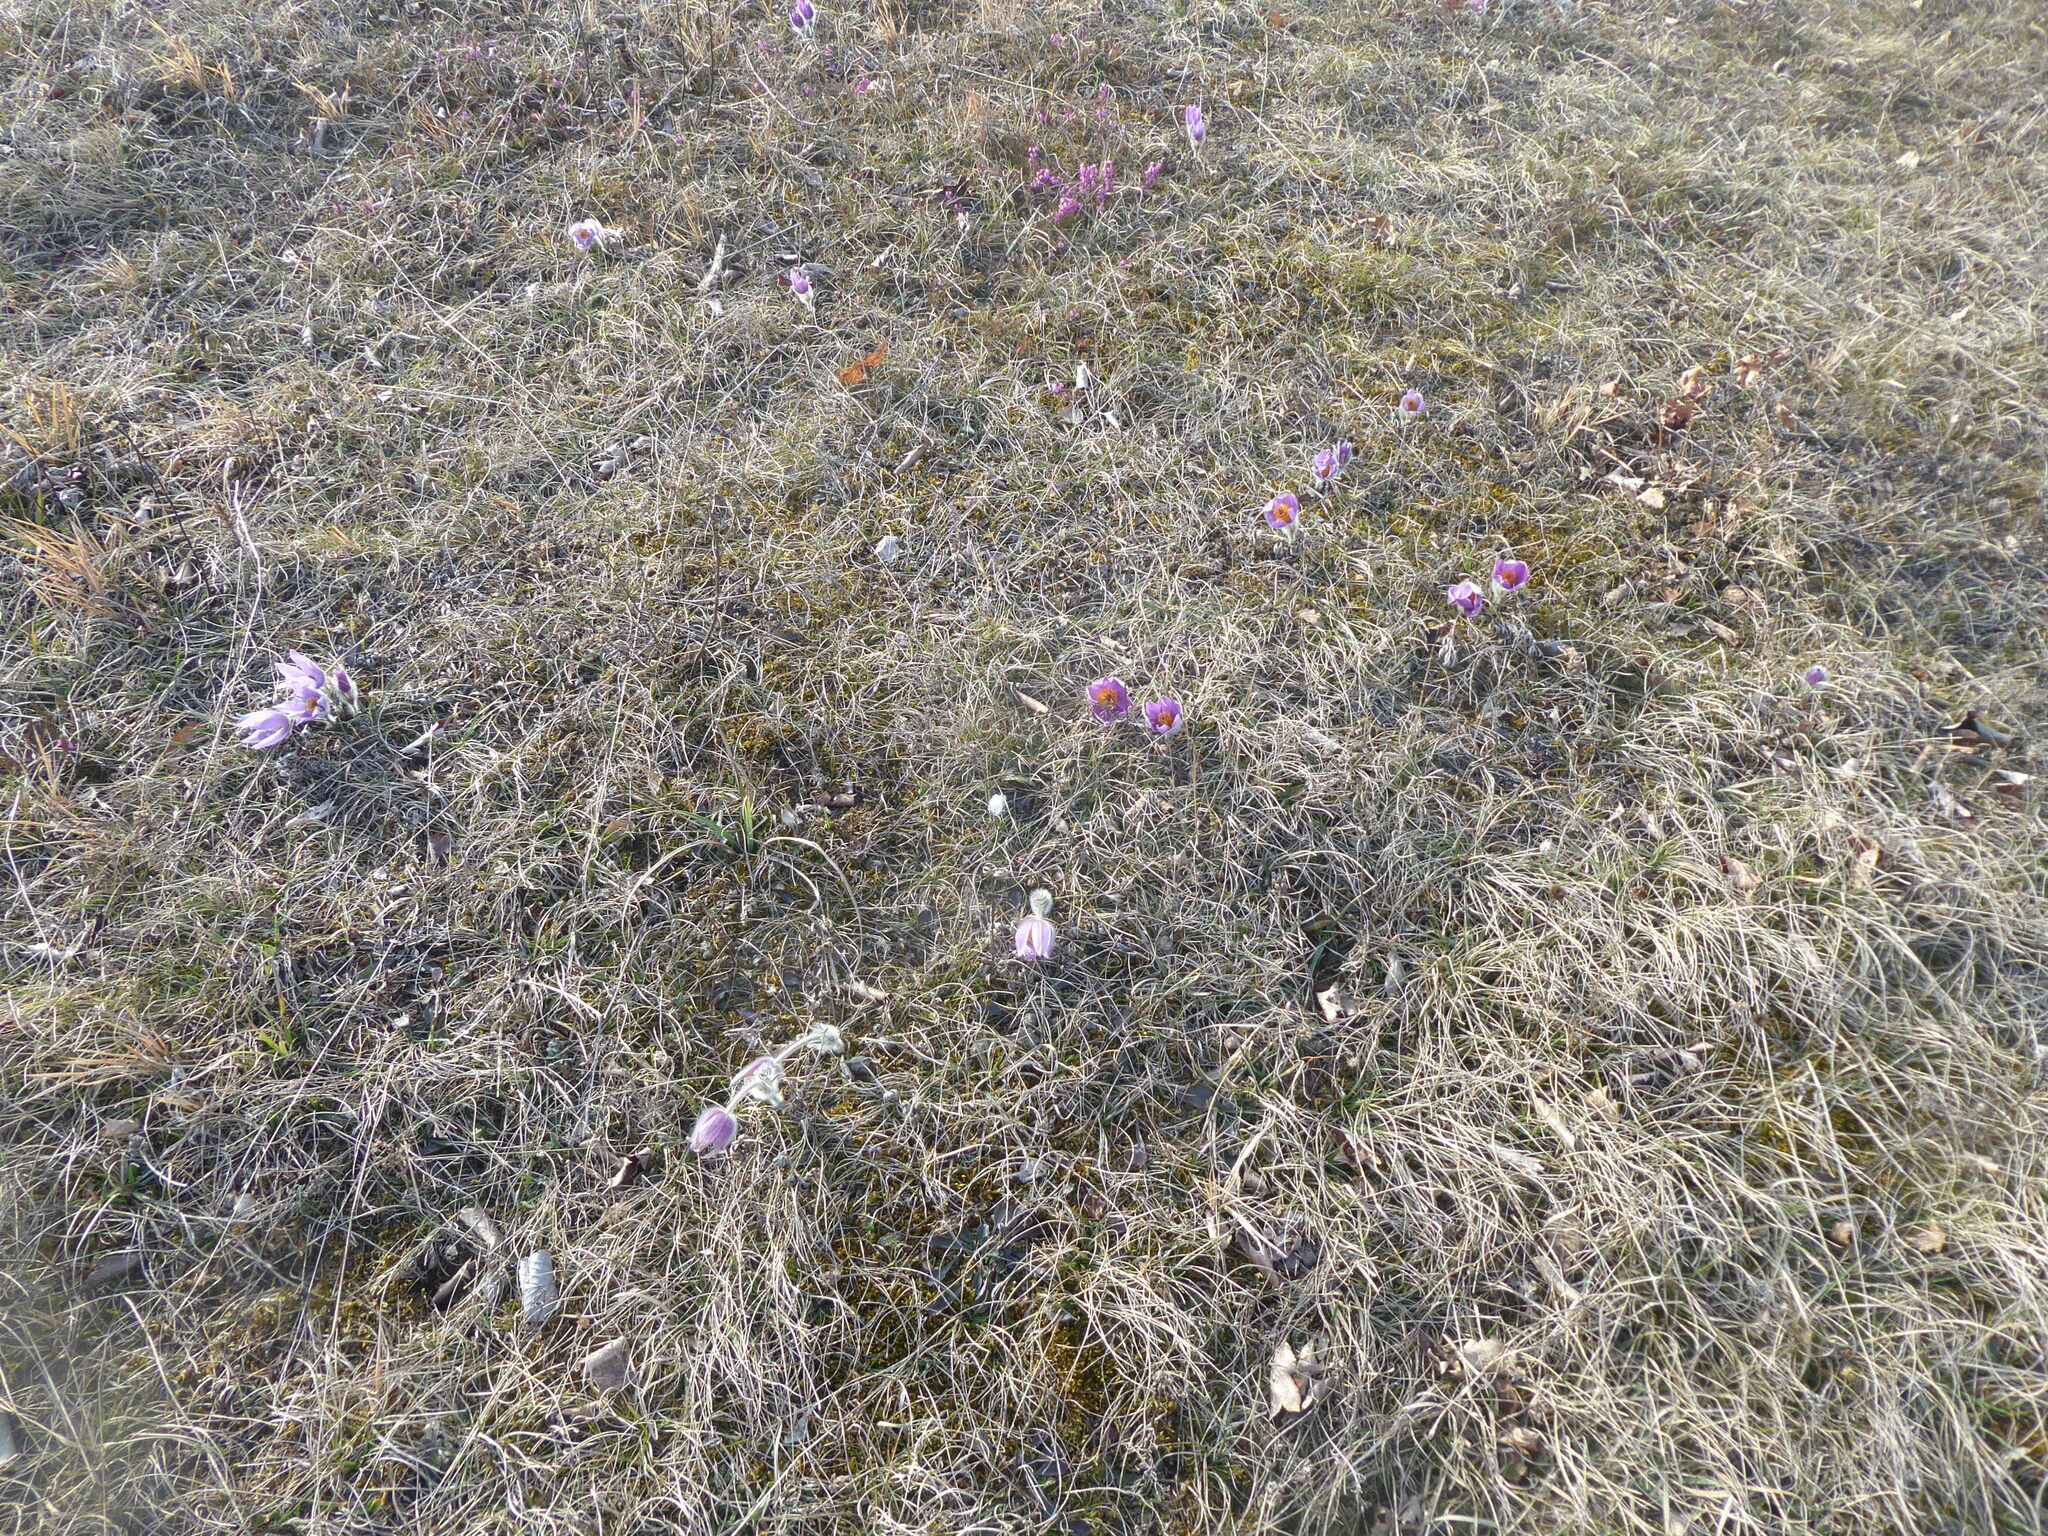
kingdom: Plantae
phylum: Tracheophyta
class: Magnoliopsida
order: Ranunculales
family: Ranunculaceae
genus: Pulsatilla
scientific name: Pulsatilla grandis
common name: Greater pasque flower
